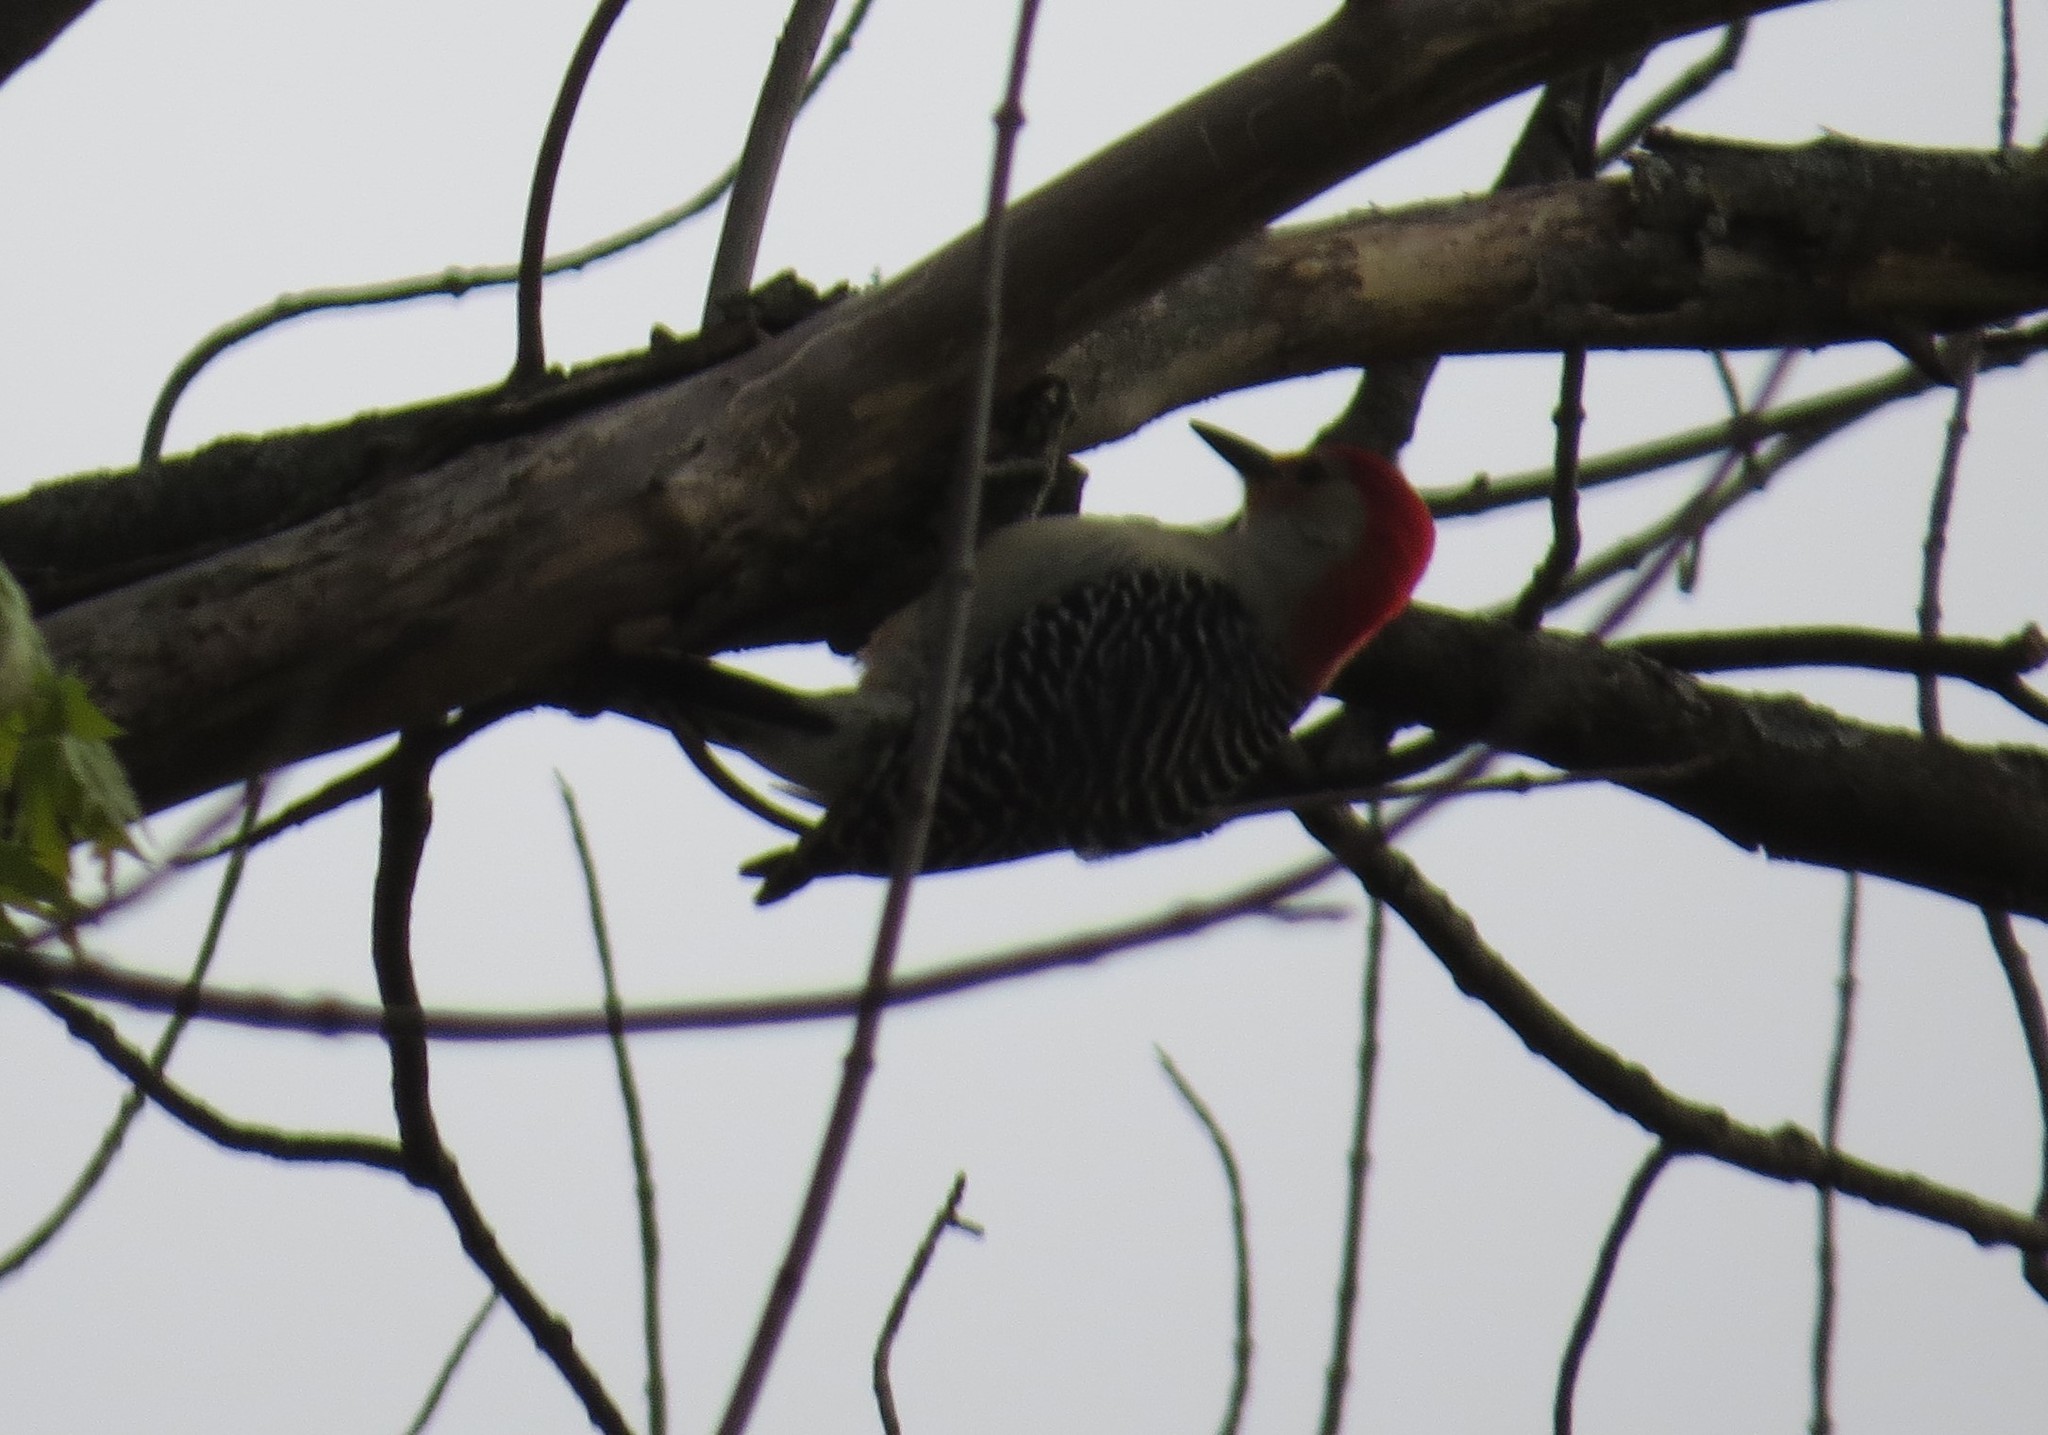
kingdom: Animalia
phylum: Chordata
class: Aves
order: Piciformes
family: Picidae
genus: Melanerpes
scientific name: Melanerpes carolinus
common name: Red-bellied woodpecker
